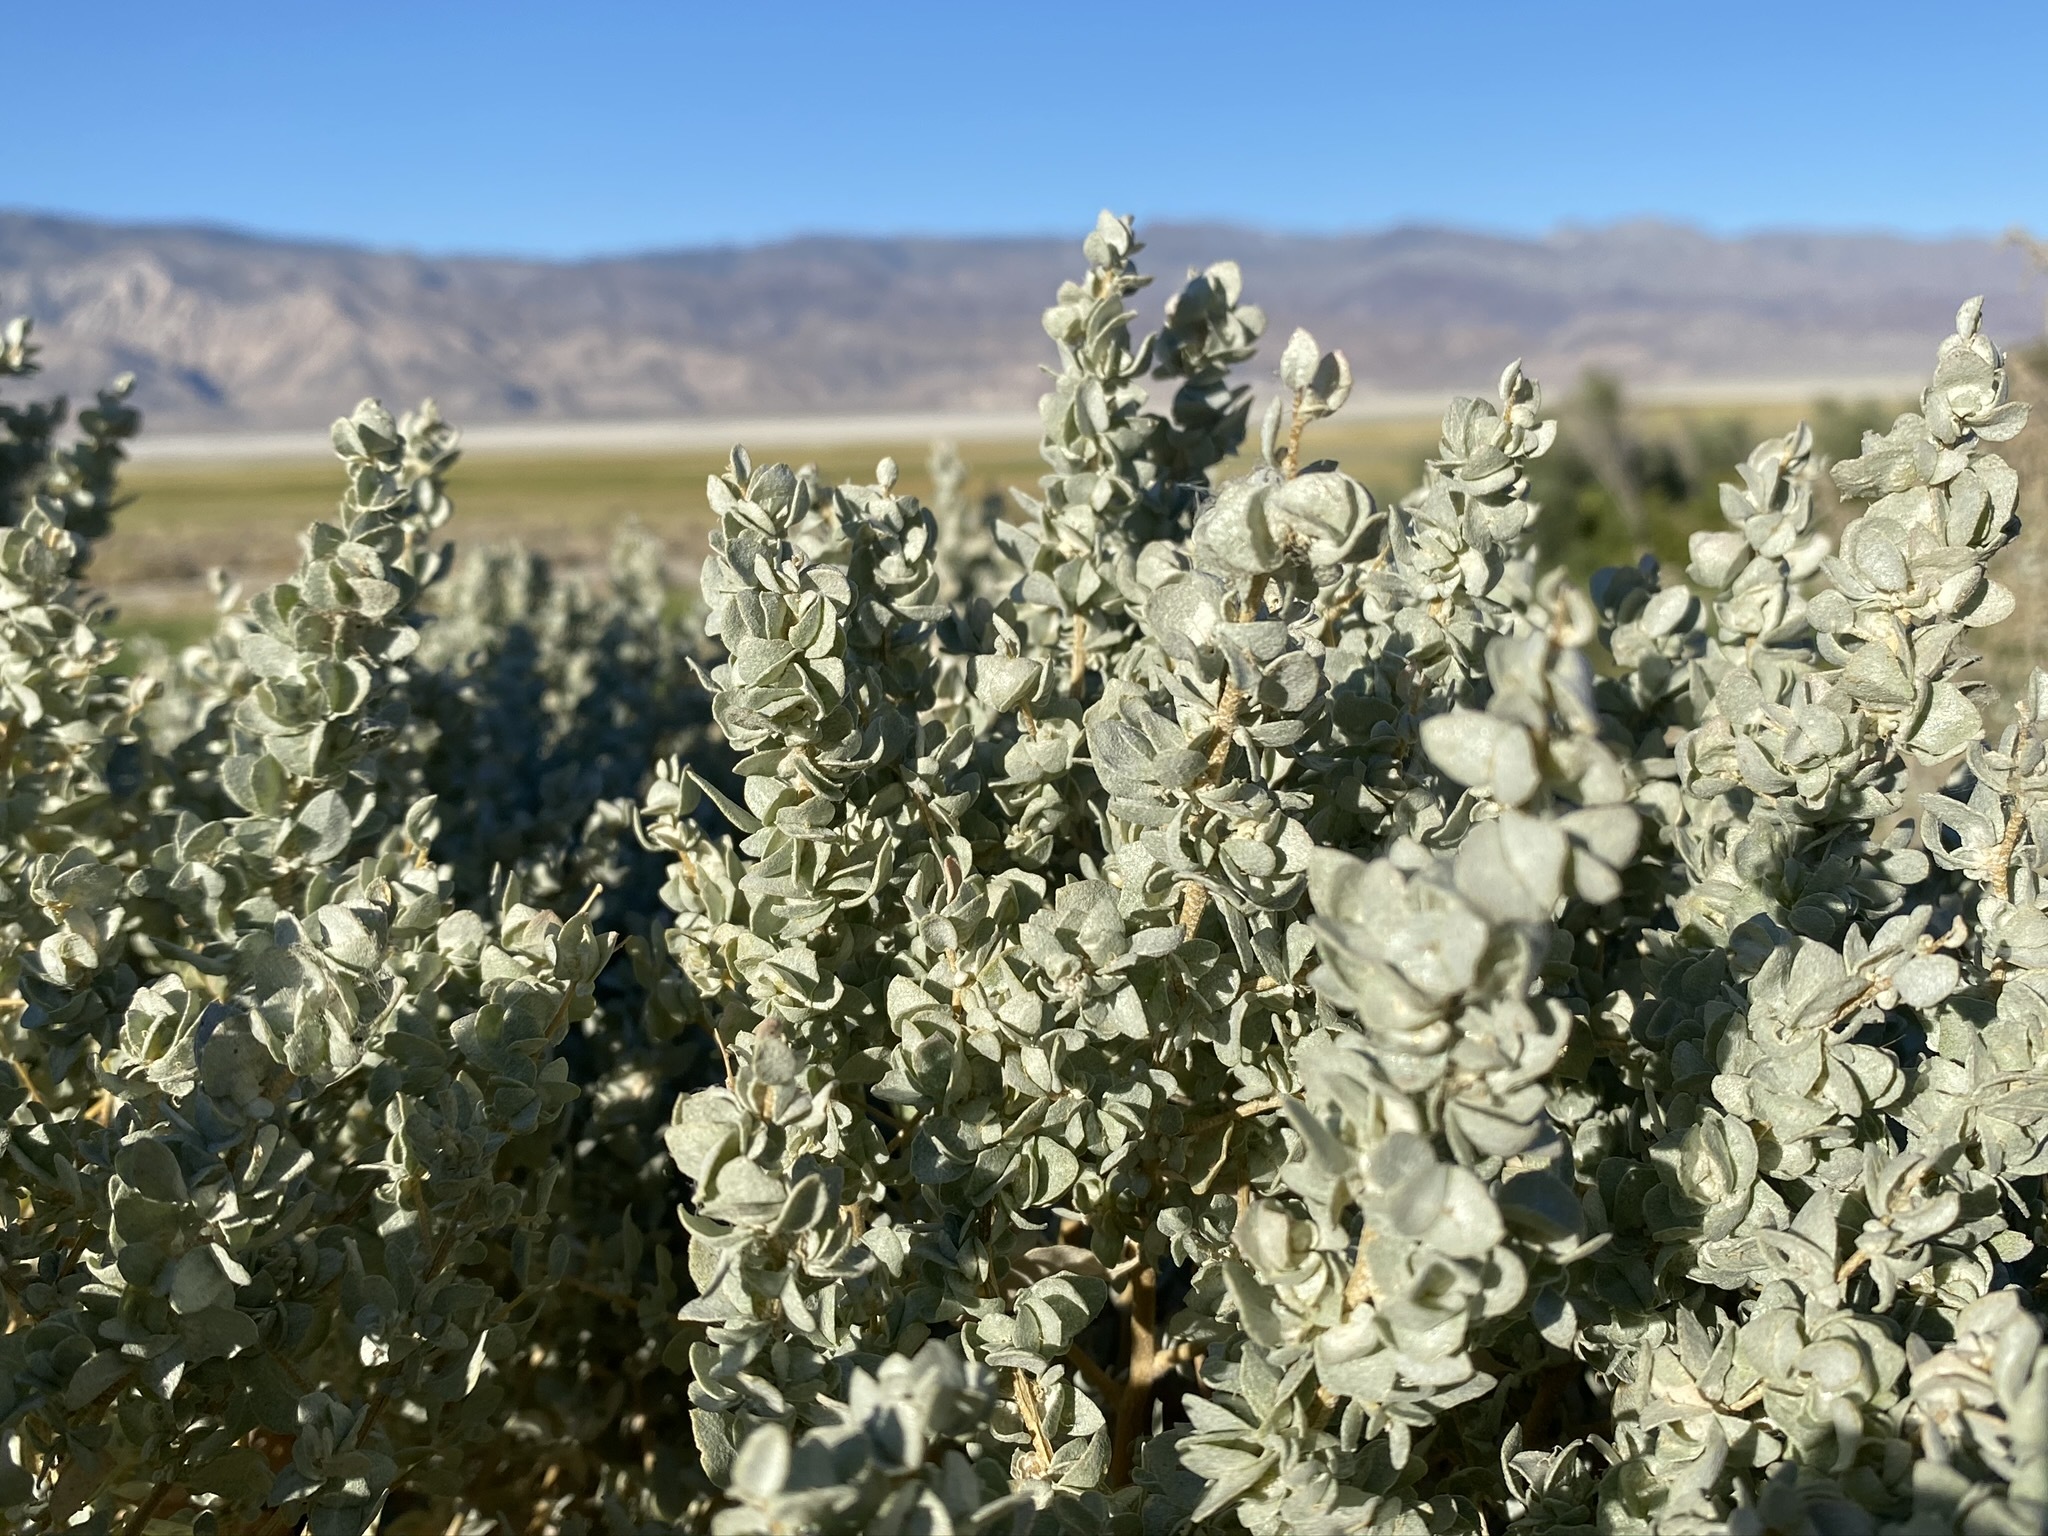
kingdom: Plantae
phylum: Tracheophyta
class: Magnoliopsida
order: Caryophyllales
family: Amaranthaceae
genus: Atriplex
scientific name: Atriplex confertifolia
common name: Shadscale
